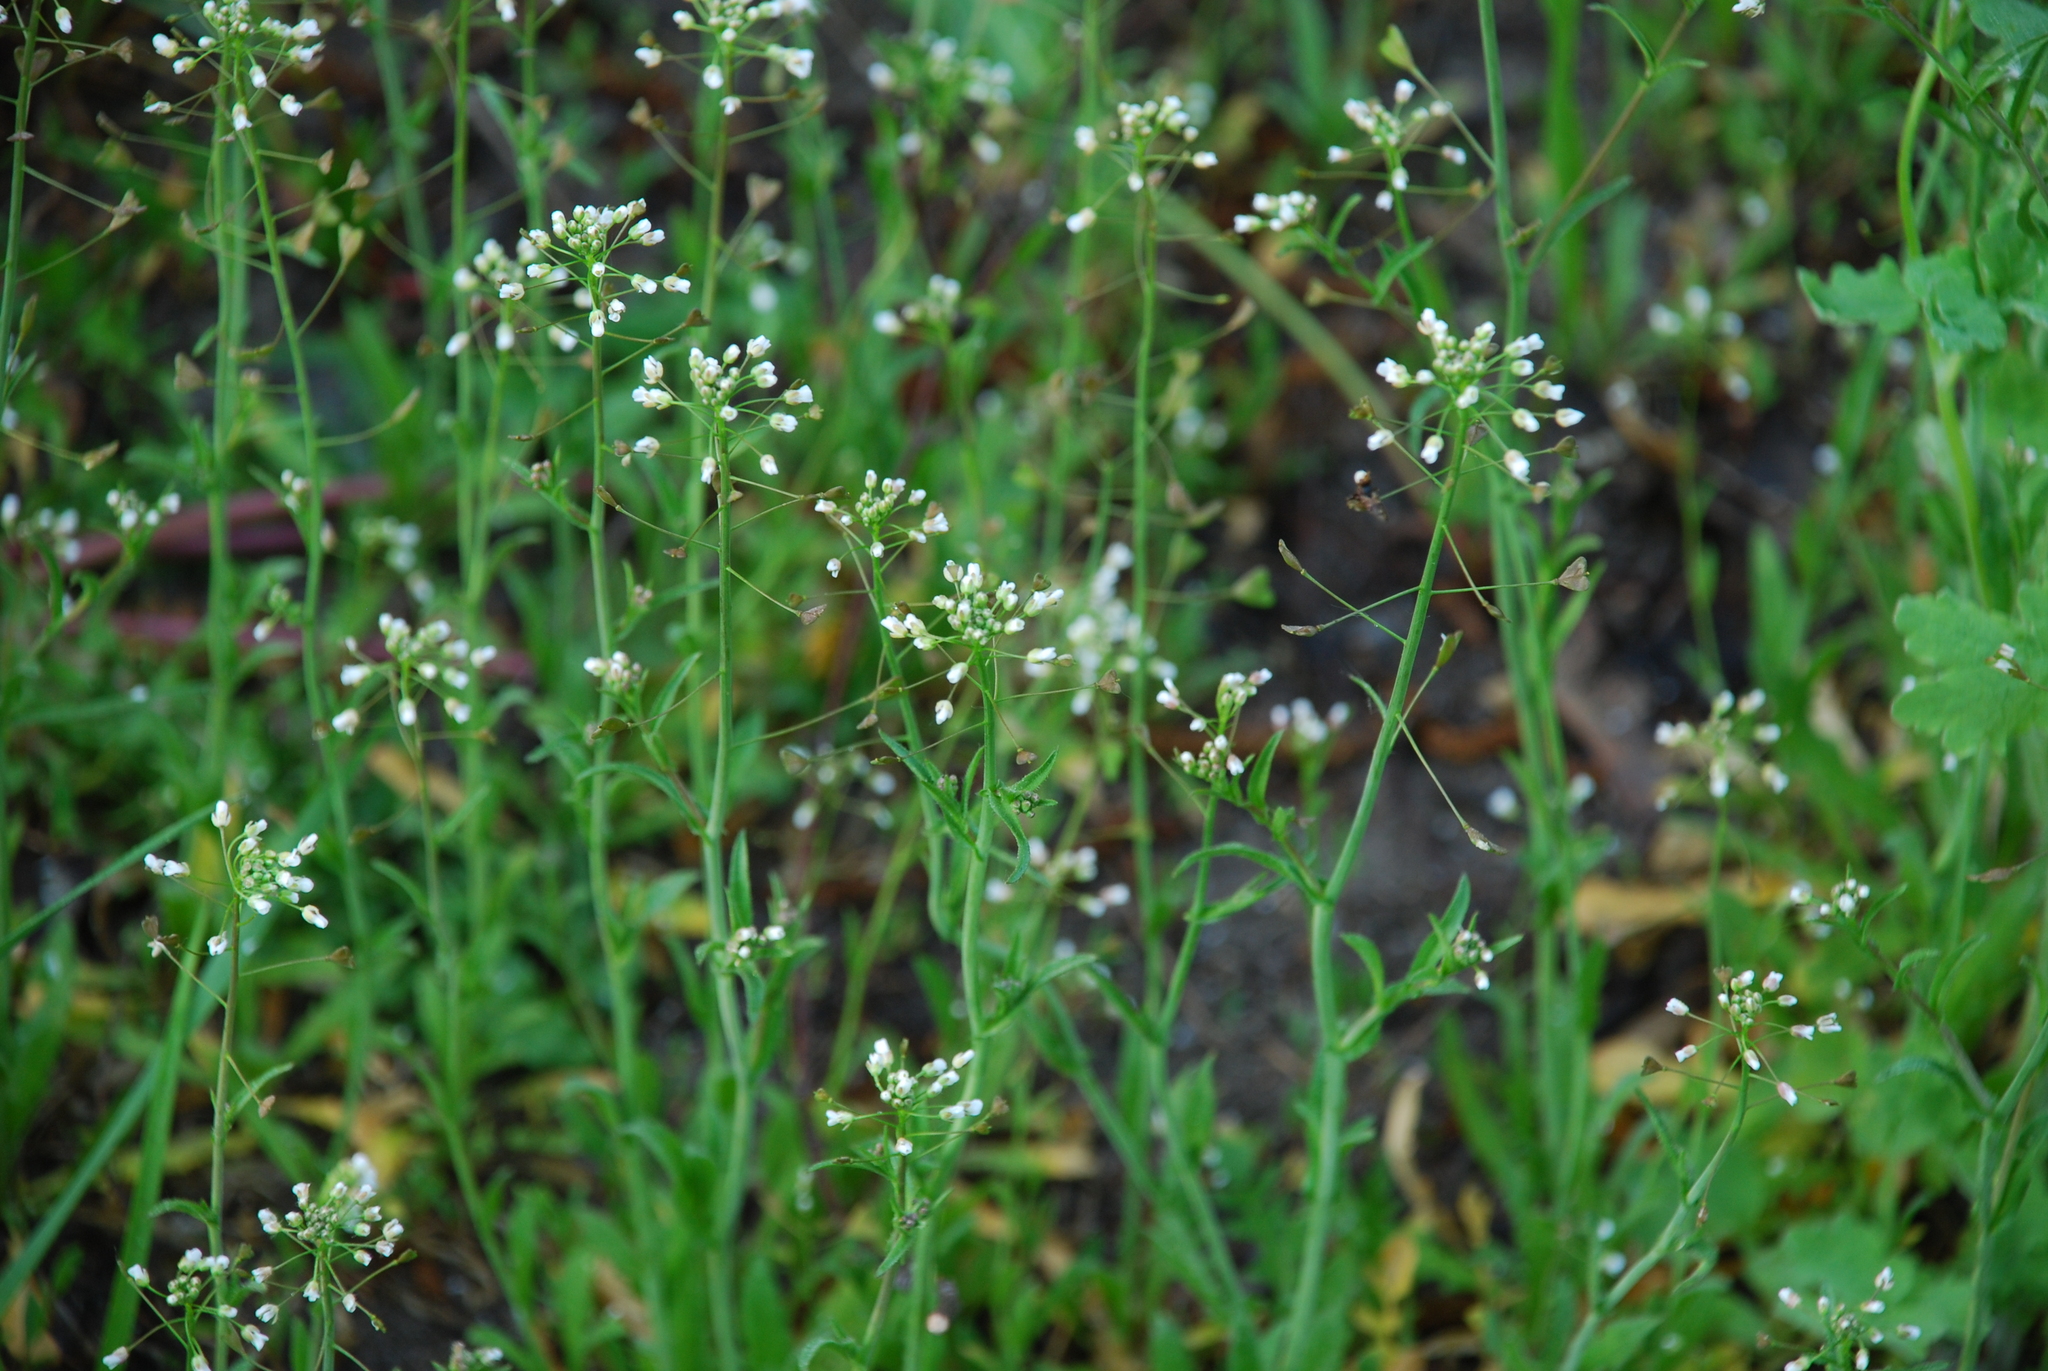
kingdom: Plantae
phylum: Tracheophyta
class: Magnoliopsida
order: Brassicales
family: Brassicaceae
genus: Capsella
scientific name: Capsella bursa-pastoris
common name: Shepherd's purse
